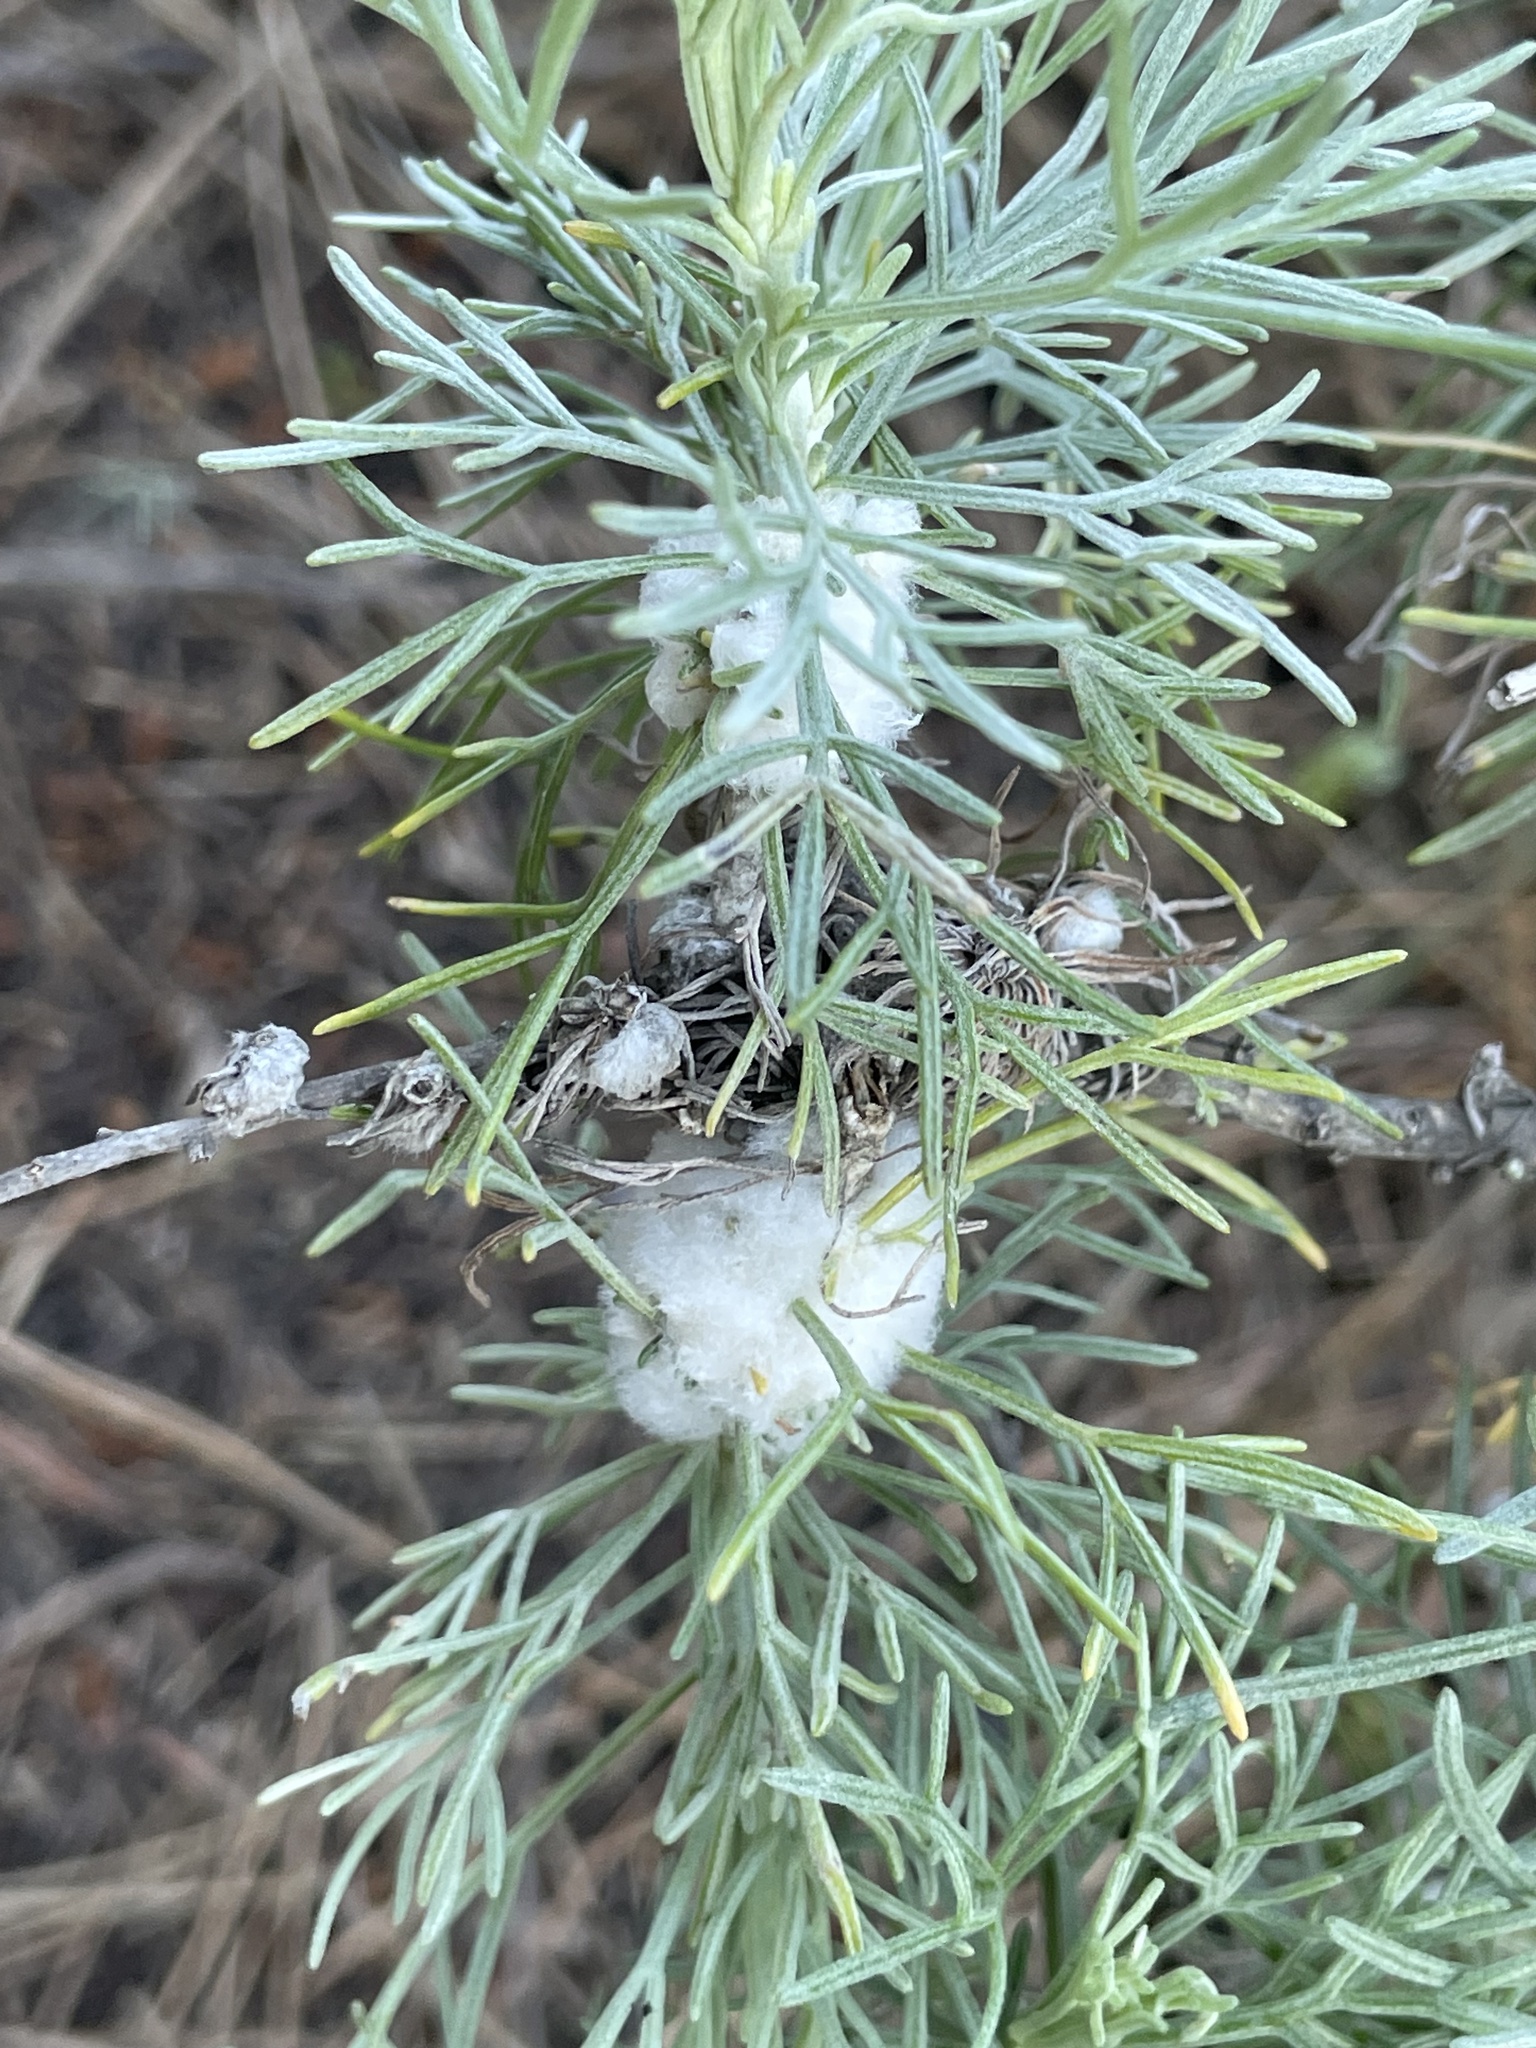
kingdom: Animalia
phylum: Arthropoda
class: Insecta
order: Diptera
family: Cecidomyiidae
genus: Rhopalomyia
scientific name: Rhopalomyia floccosa
